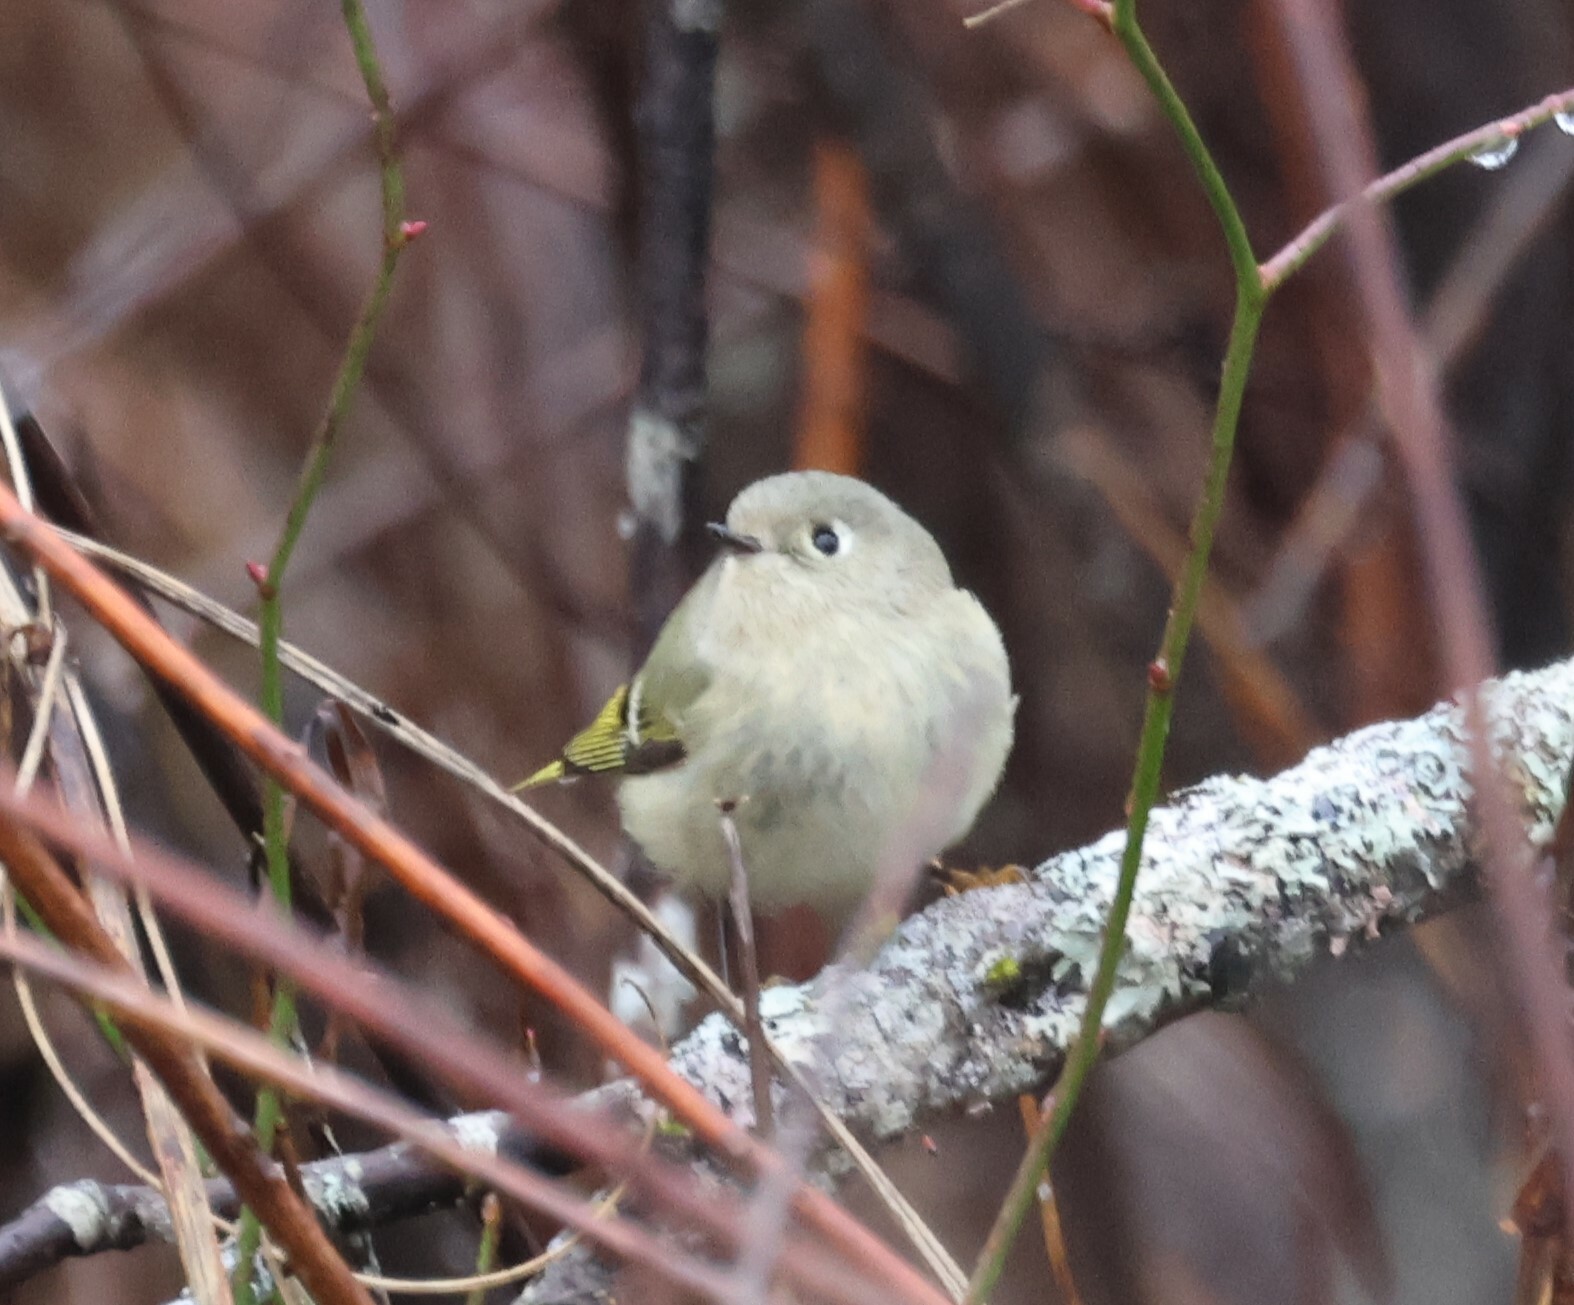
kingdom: Animalia
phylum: Chordata
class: Aves
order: Passeriformes
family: Regulidae
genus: Regulus
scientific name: Regulus calendula
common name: Ruby-crowned kinglet
